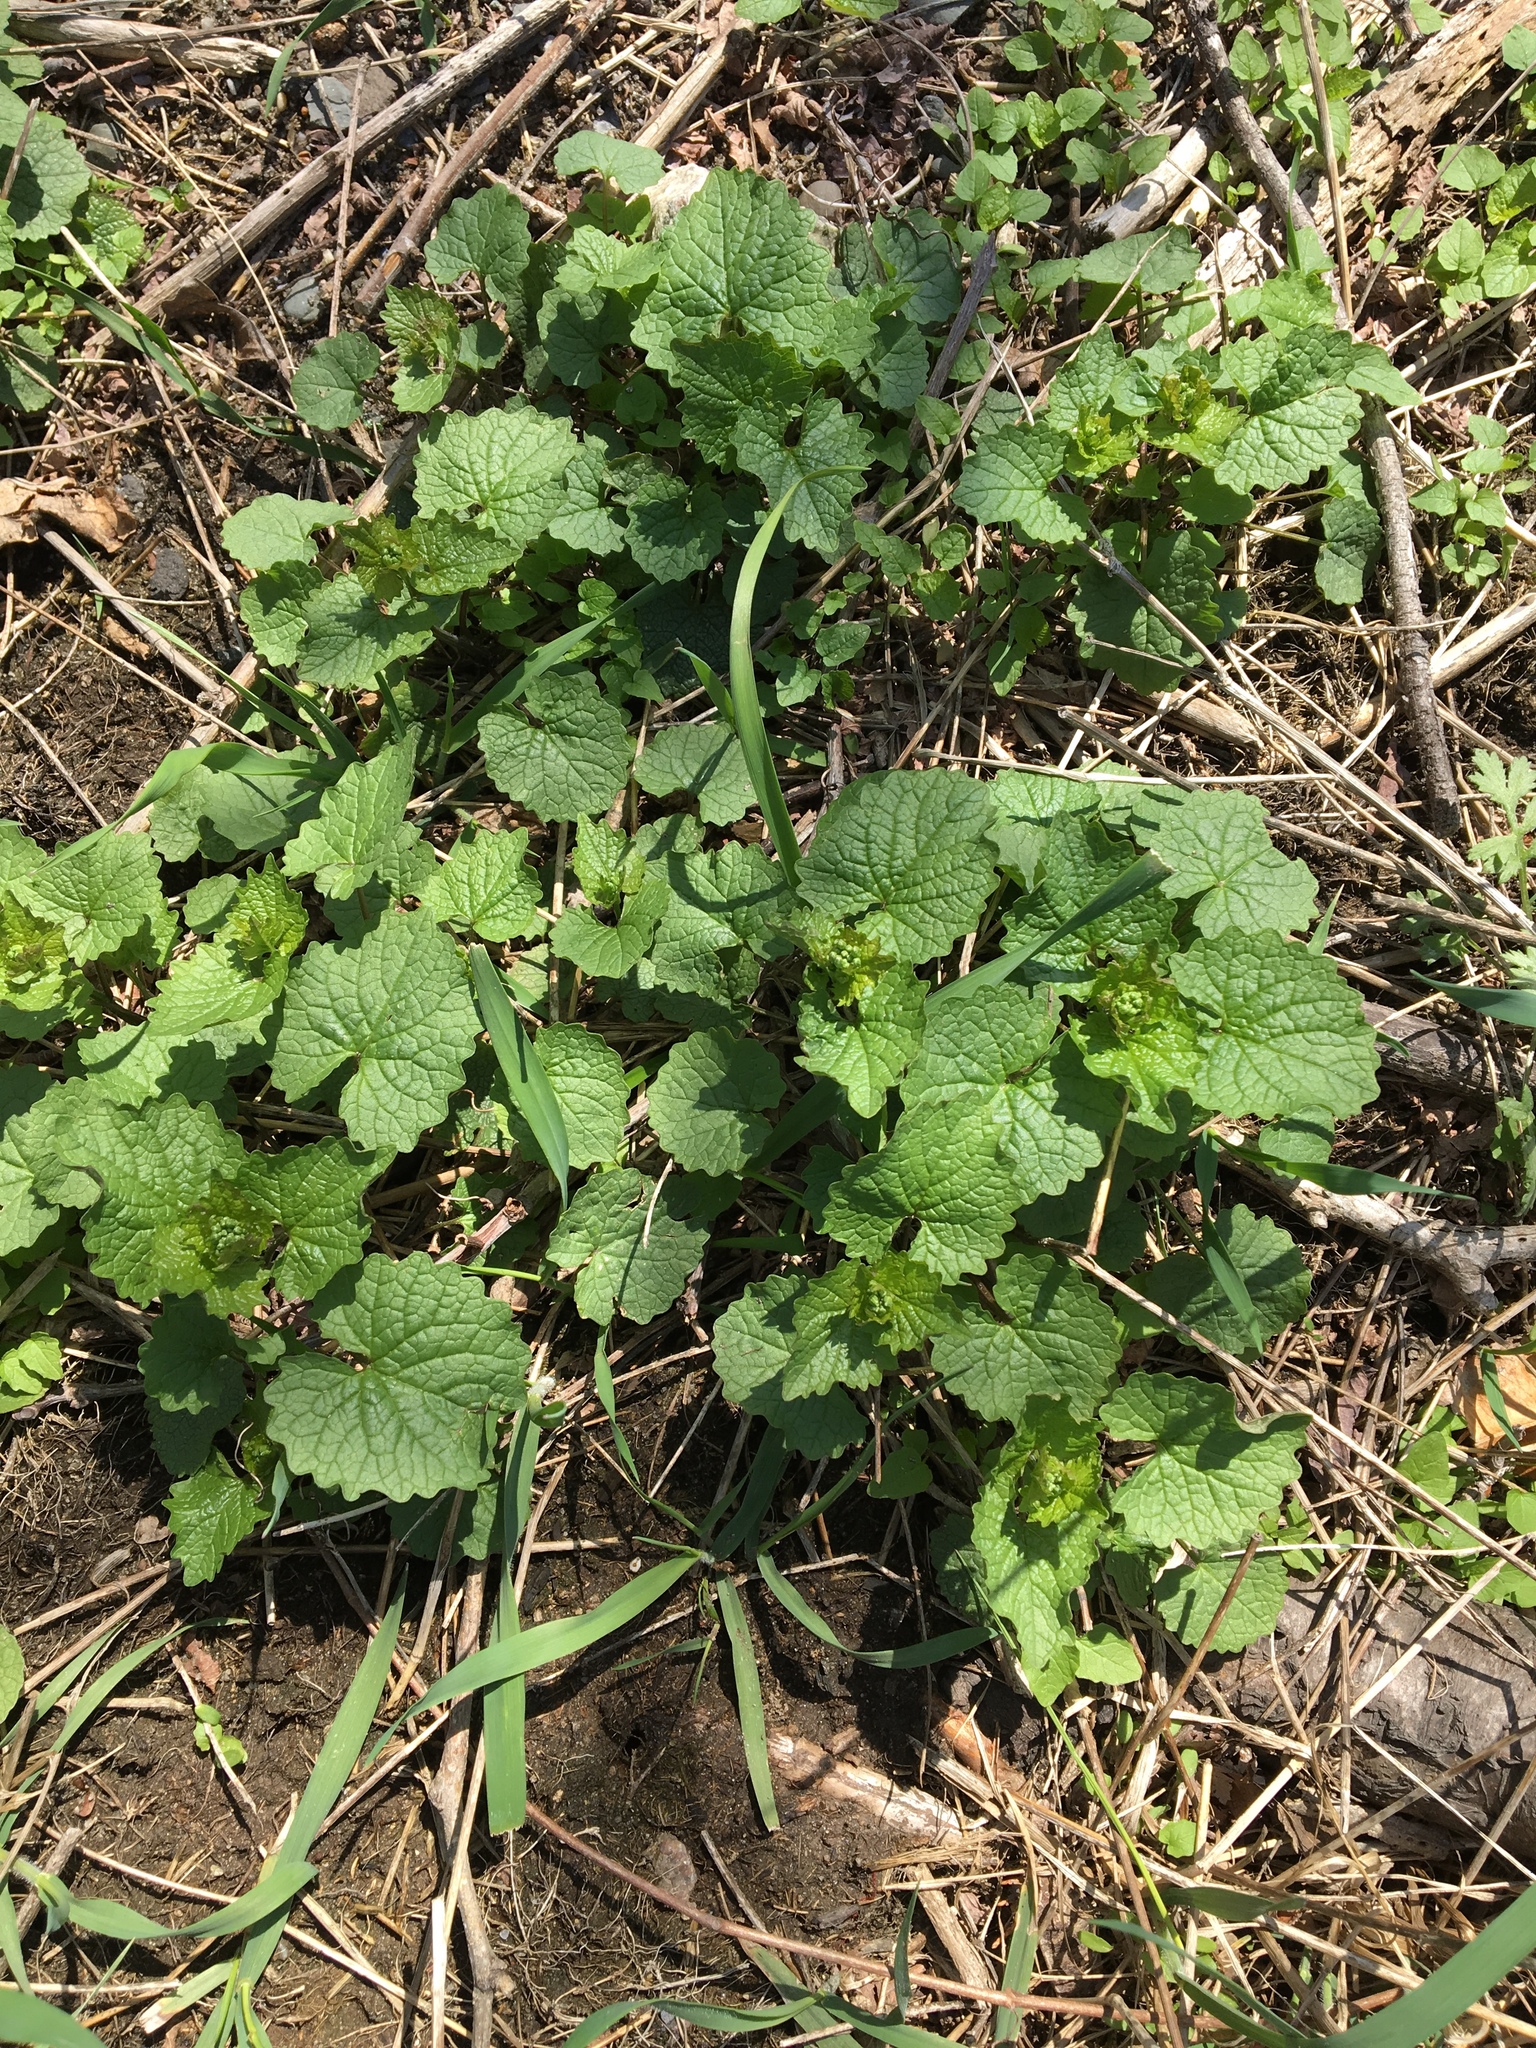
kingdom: Plantae
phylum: Tracheophyta
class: Magnoliopsida
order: Brassicales
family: Brassicaceae
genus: Alliaria
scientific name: Alliaria petiolata
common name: Garlic mustard
